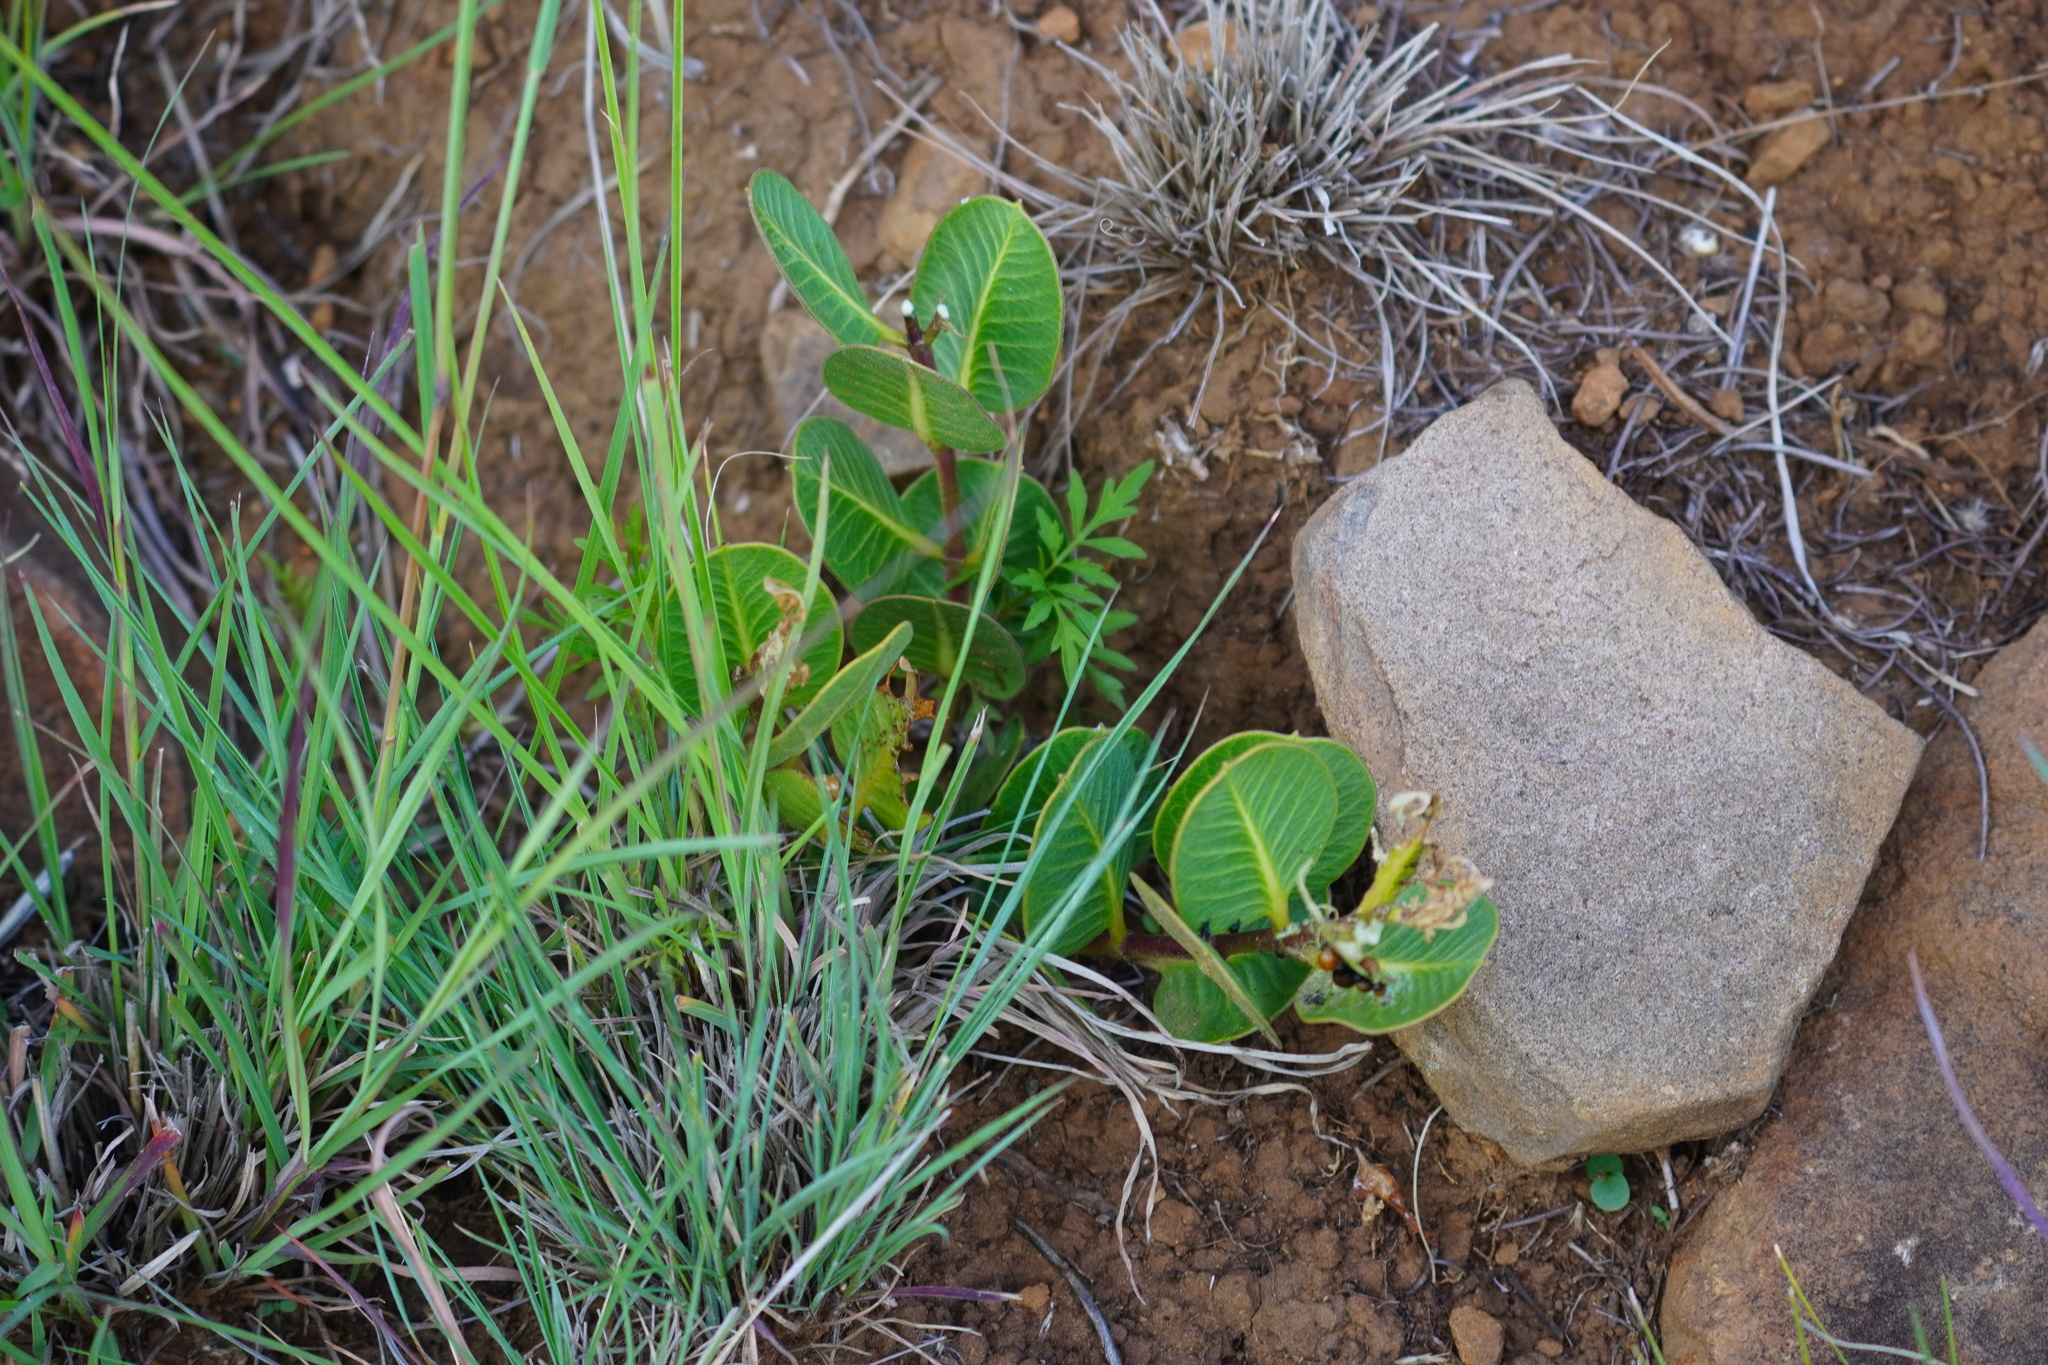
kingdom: Plantae
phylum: Tracheophyta
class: Magnoliopsida
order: Gentianales
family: Apocynaceae
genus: Raphionacme
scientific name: Raphionacme hirsuta
